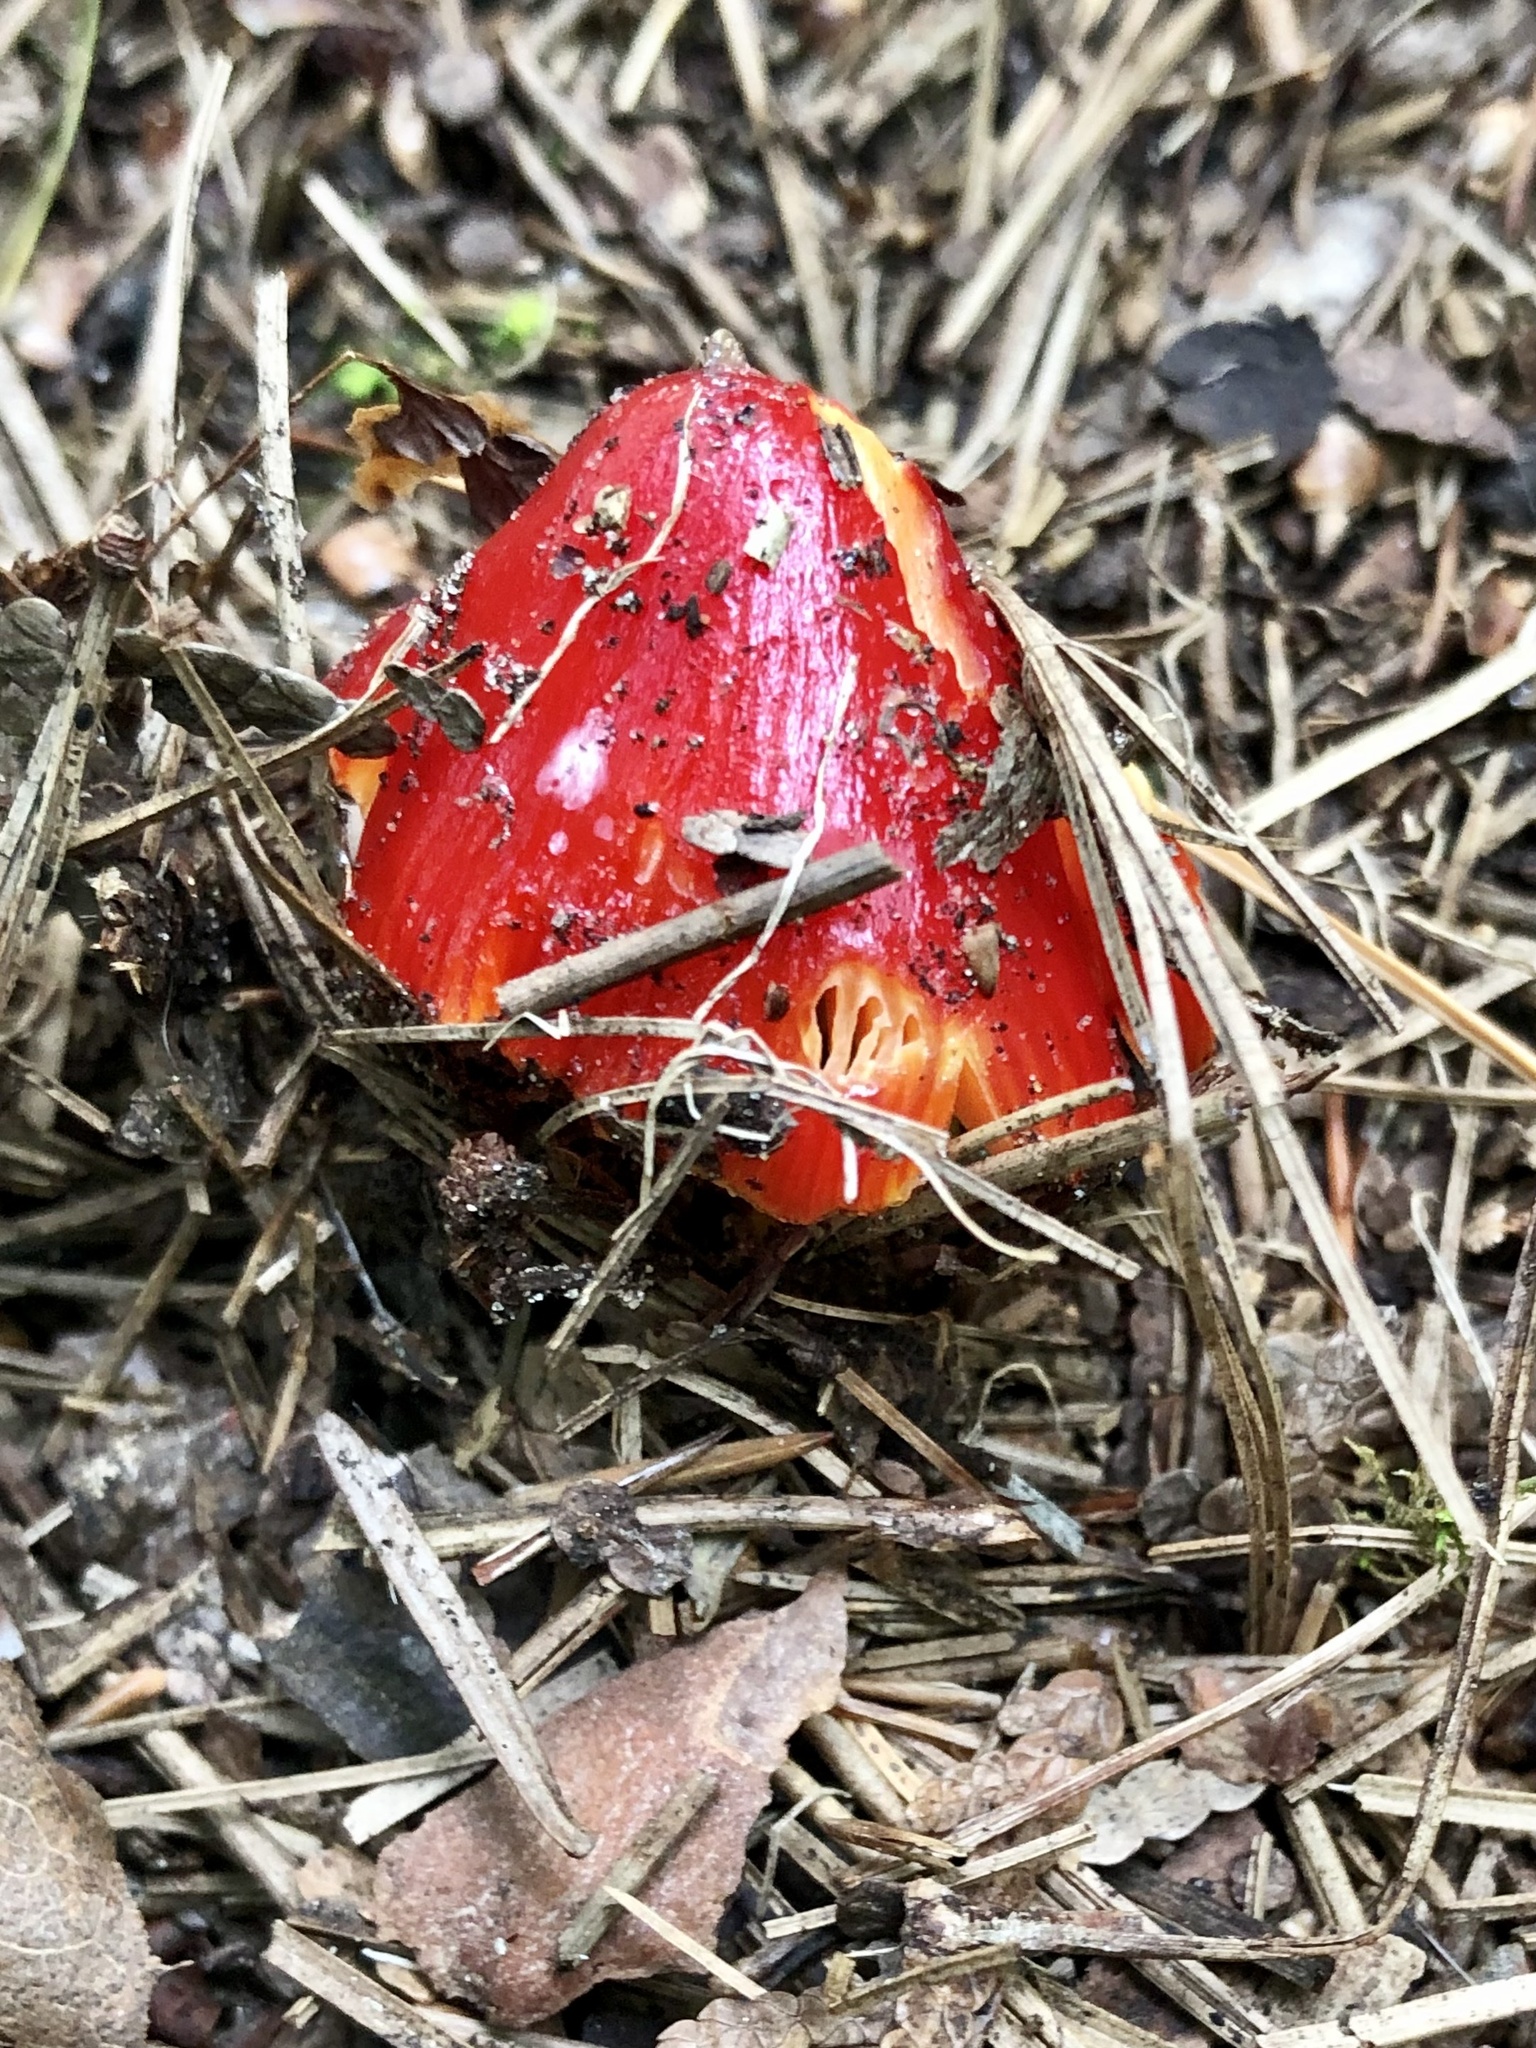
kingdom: Fungi
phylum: Basidiomycota
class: Agaricomycetes
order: Agaricales
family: Hygrophoraceae
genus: Hygrocybe
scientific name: Hygrocybe cuspidata
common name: Candy apple waxy cap
